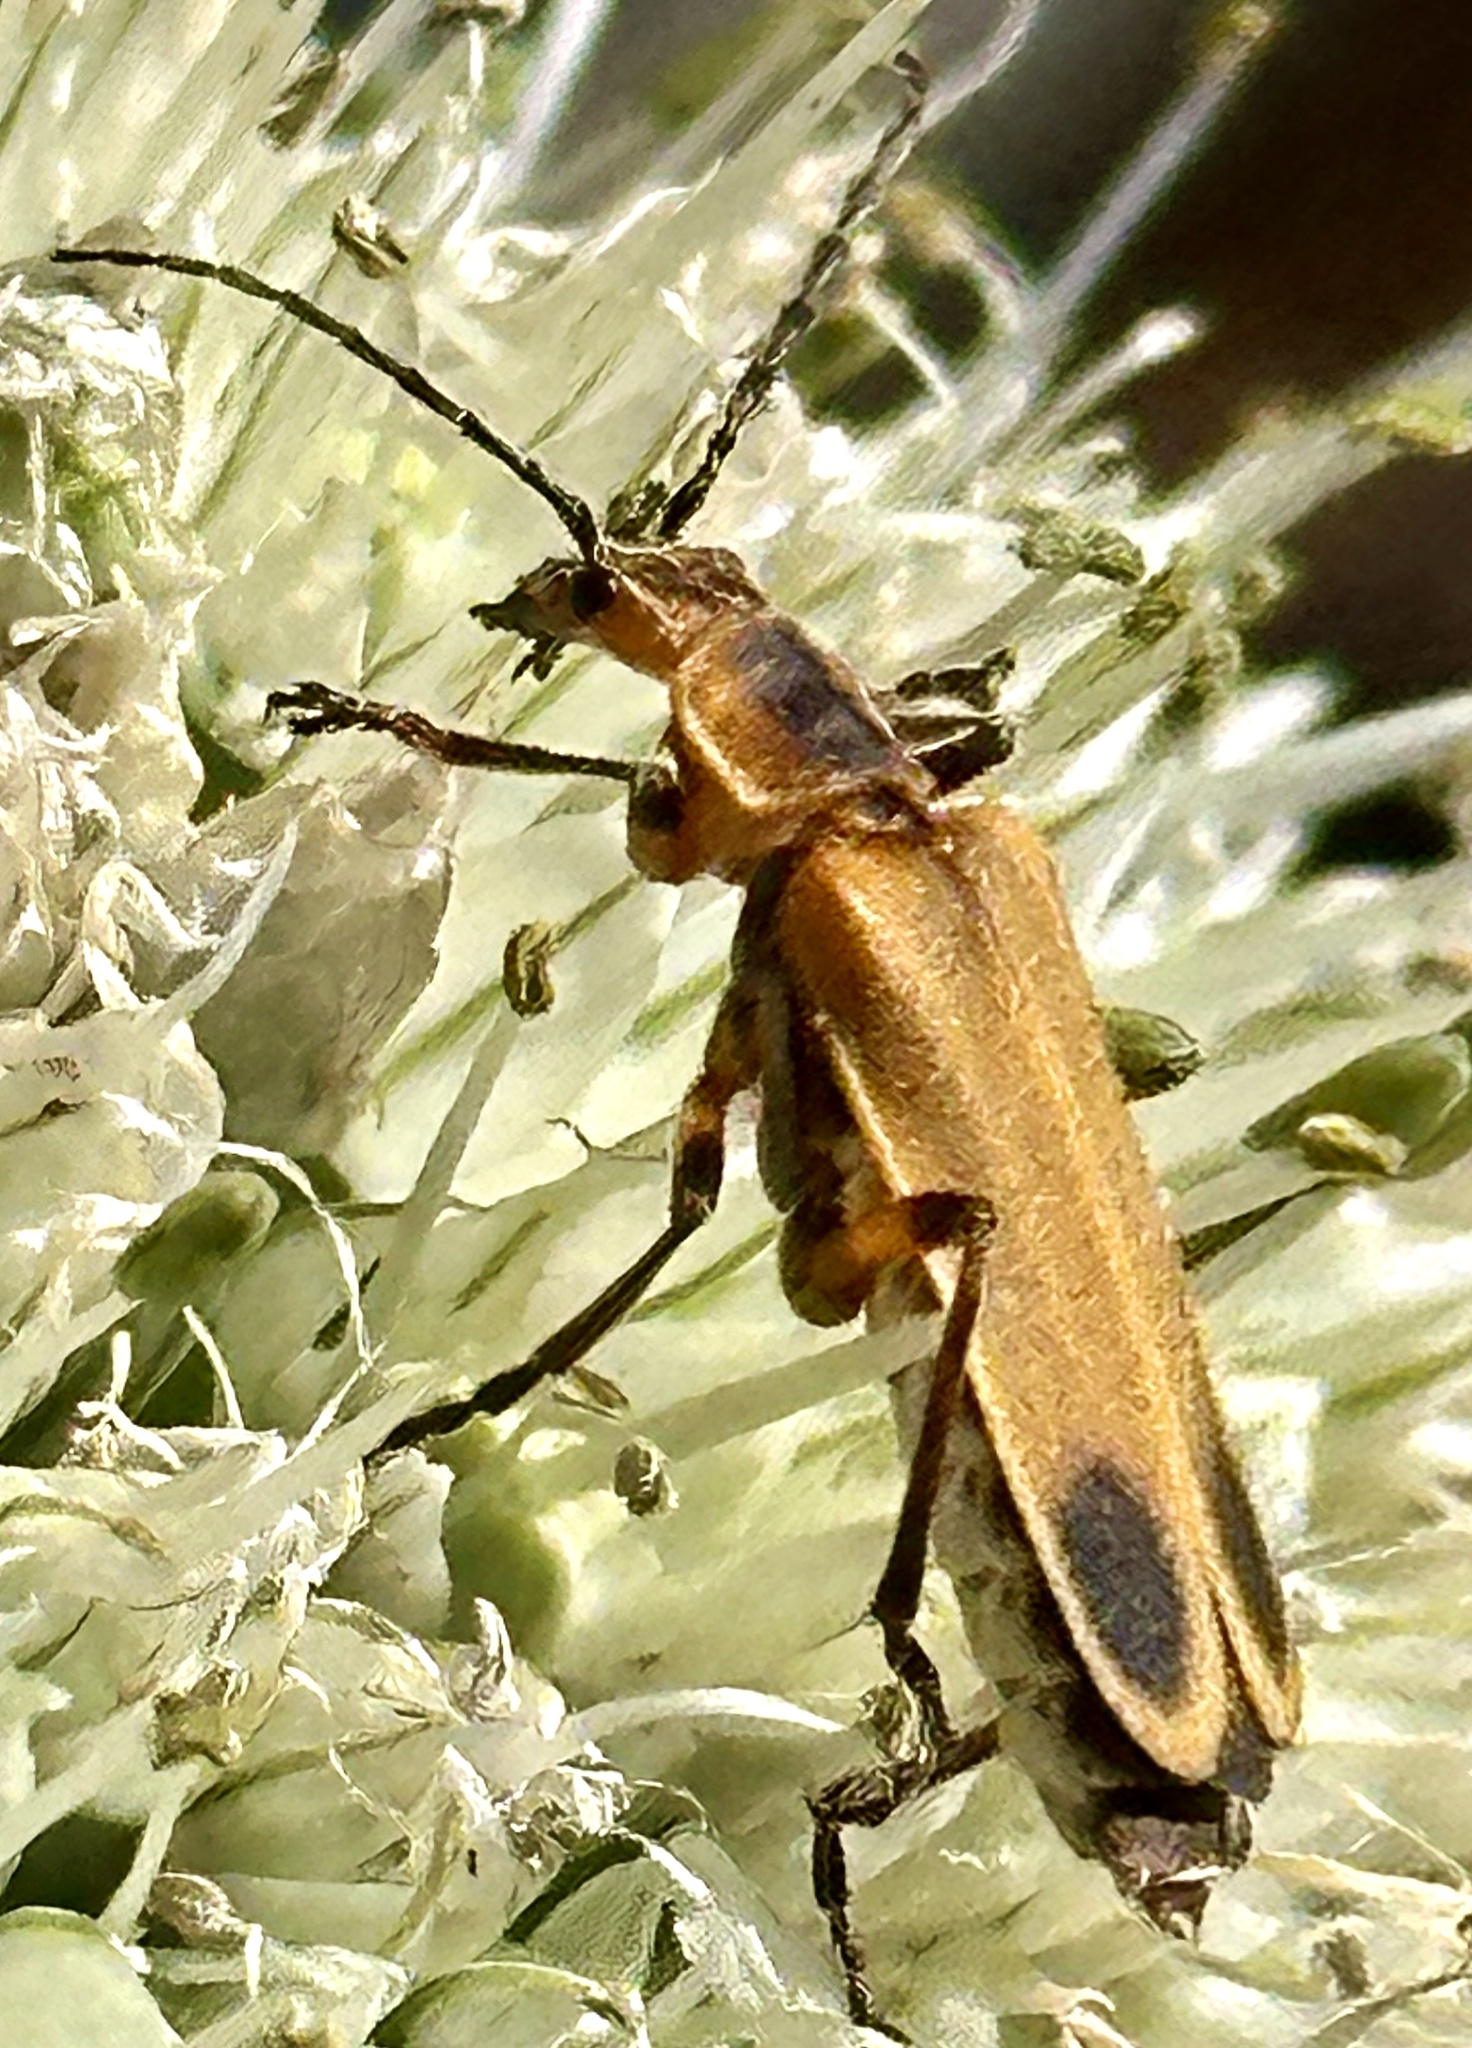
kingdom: Animalia
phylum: Arthropoda
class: Insecta
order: Coleoptera
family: Cantharidae
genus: Chauliognathus
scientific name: Chauliognathus marginatus
